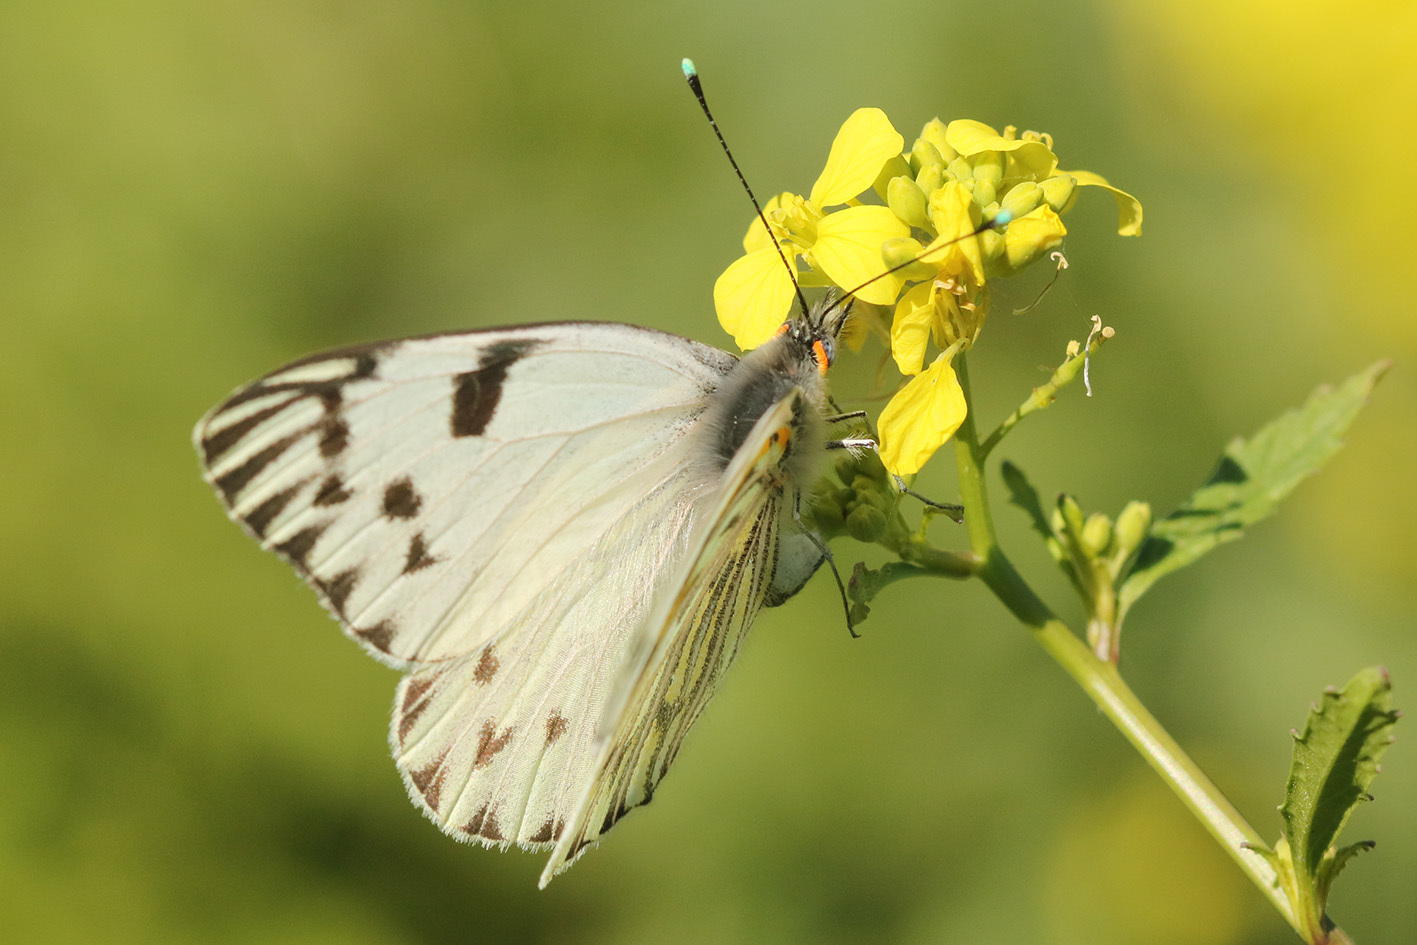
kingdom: Animalia
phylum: Arthropoda
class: Insecta
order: Lepidoptera
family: Pieridae
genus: Tatochila
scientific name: Tatochila autodice
